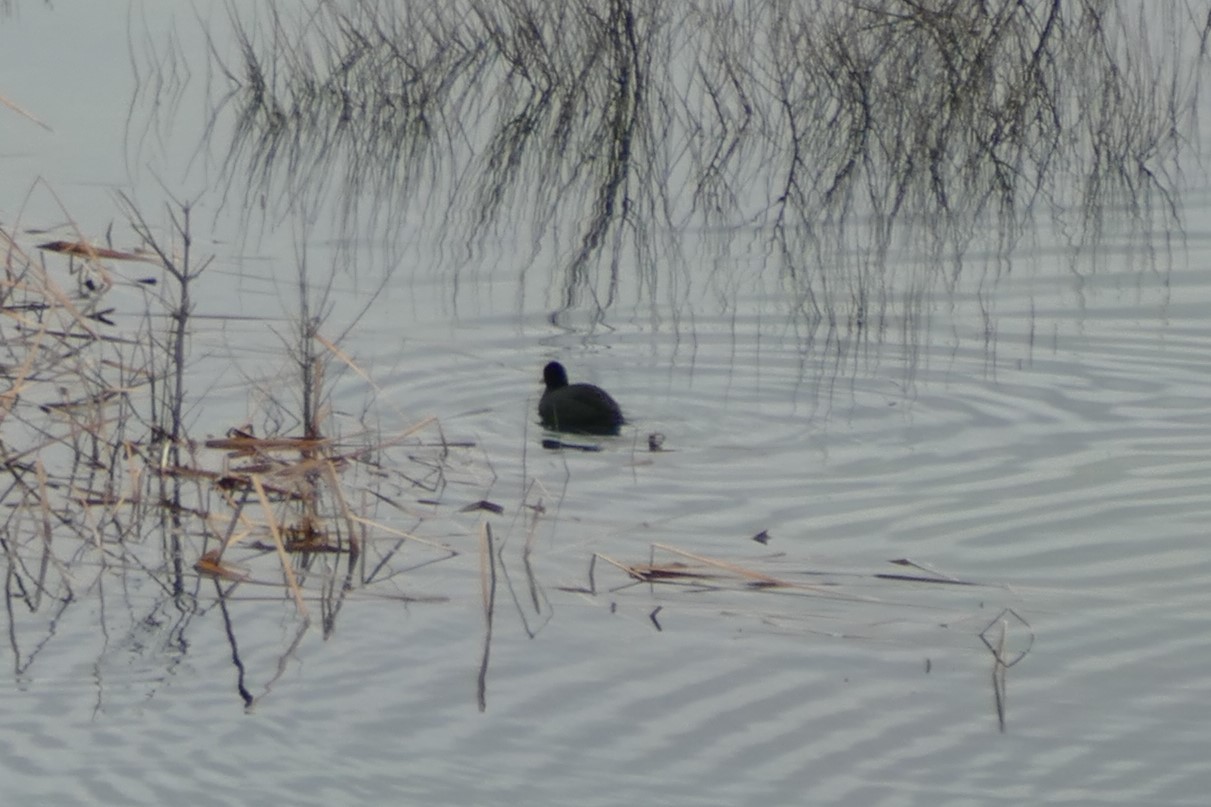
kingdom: Animalia
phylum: Chordata
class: Aves
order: Gruiformes
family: Rallidae
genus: Fulica
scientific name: Fulica atra
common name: Eurasian coot
